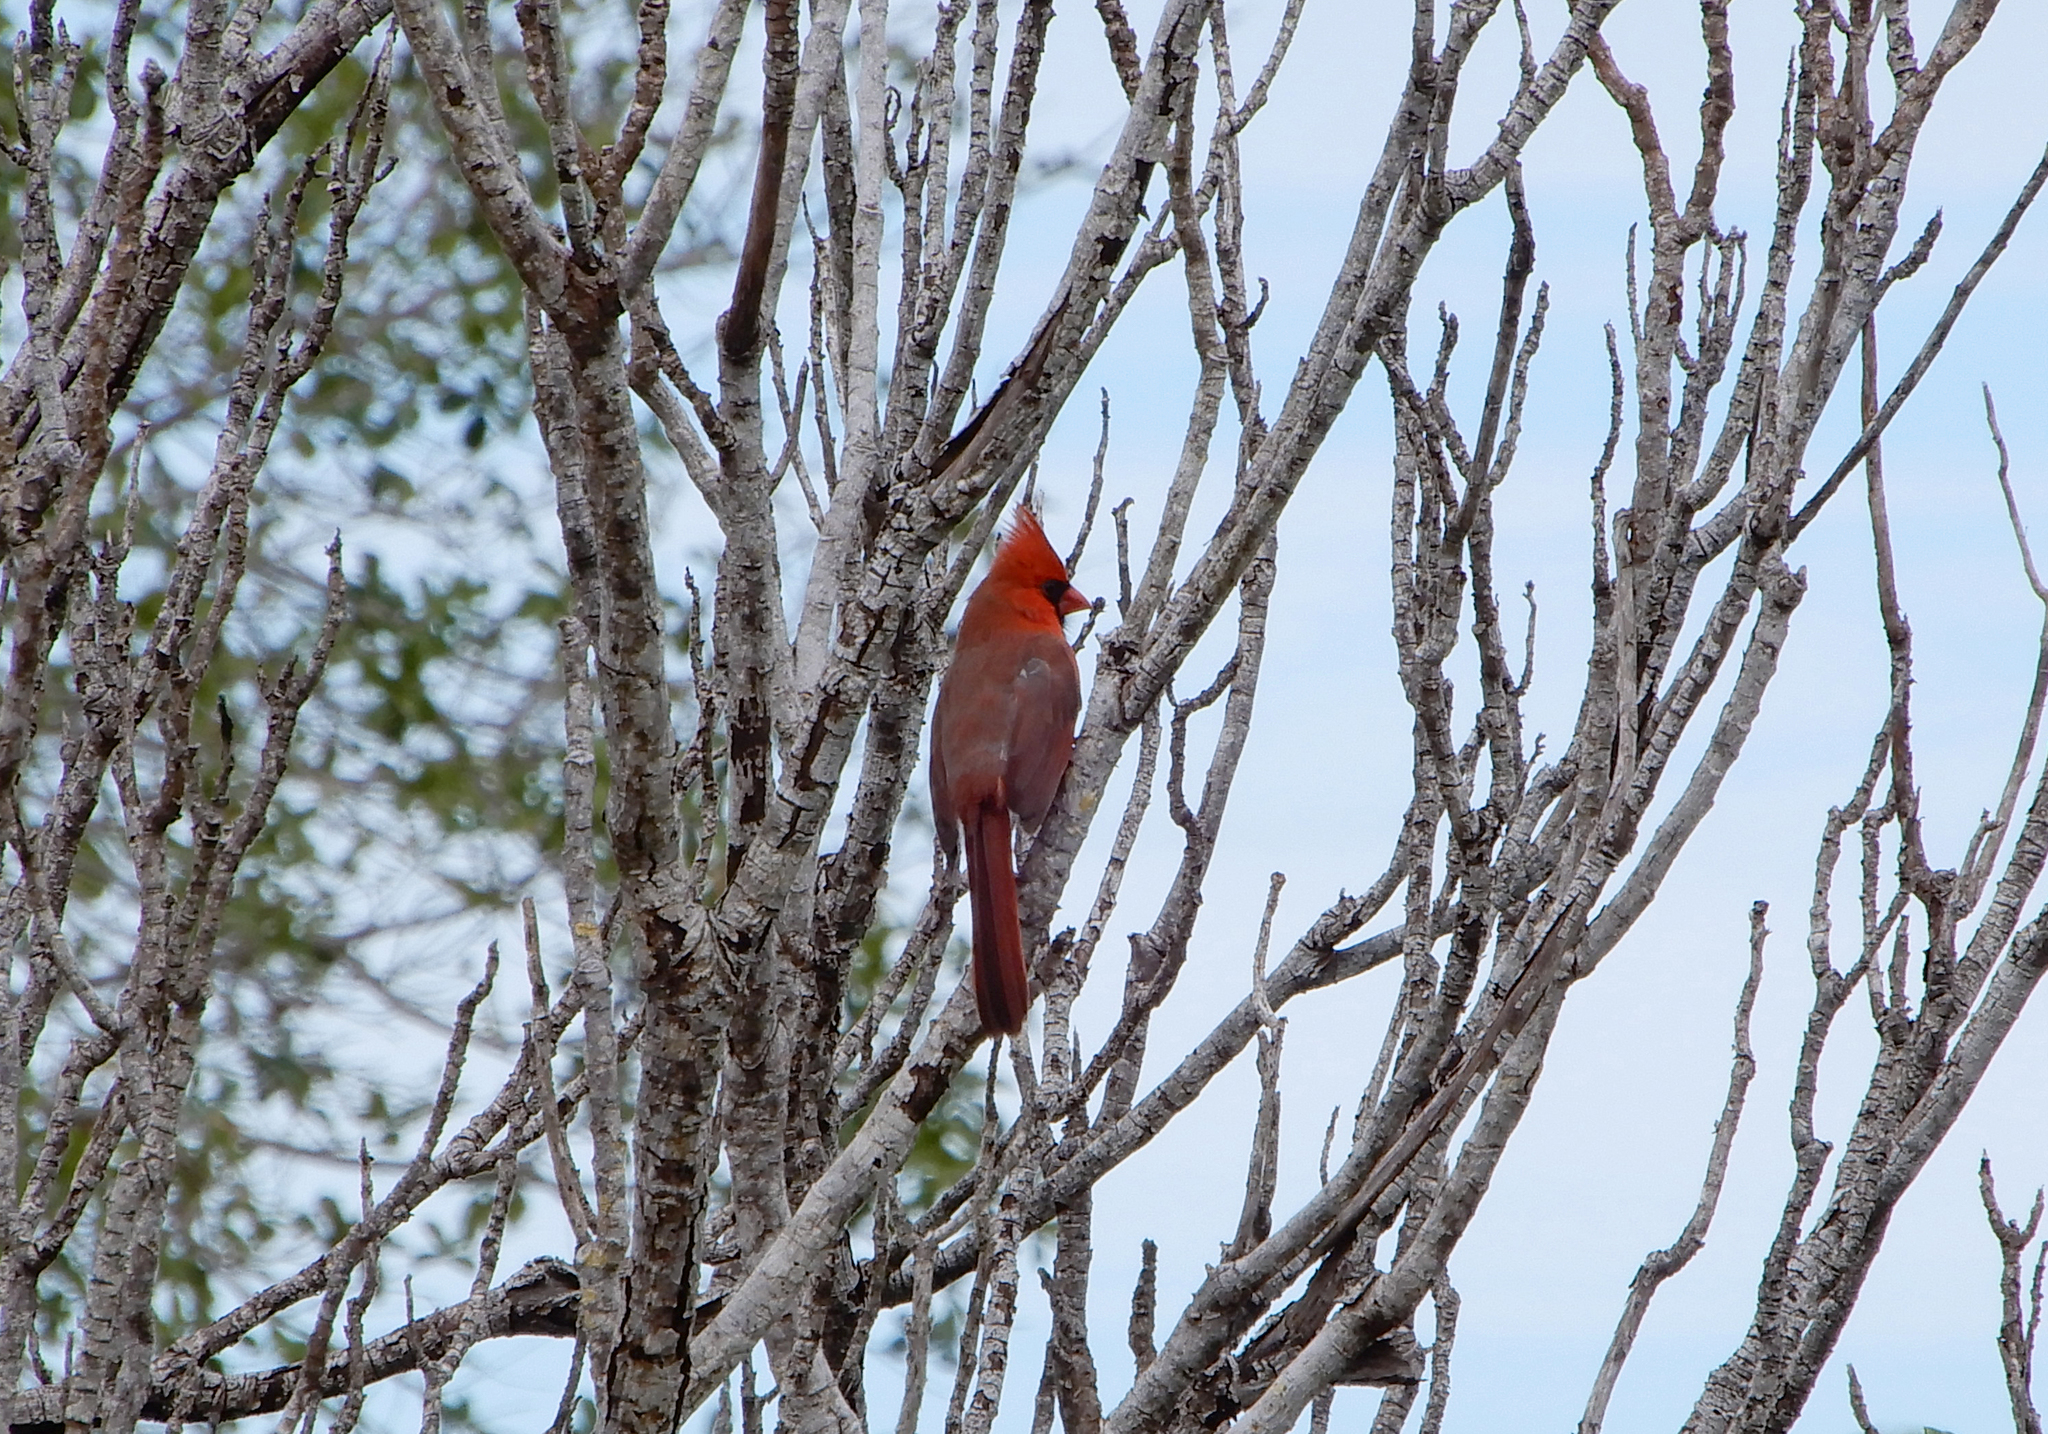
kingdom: Animalia
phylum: Chordata
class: Aves
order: Passeriformes
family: Cardinalidae
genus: Cardinalis
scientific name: Cardinalis cardinalis
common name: Northern cardinal
